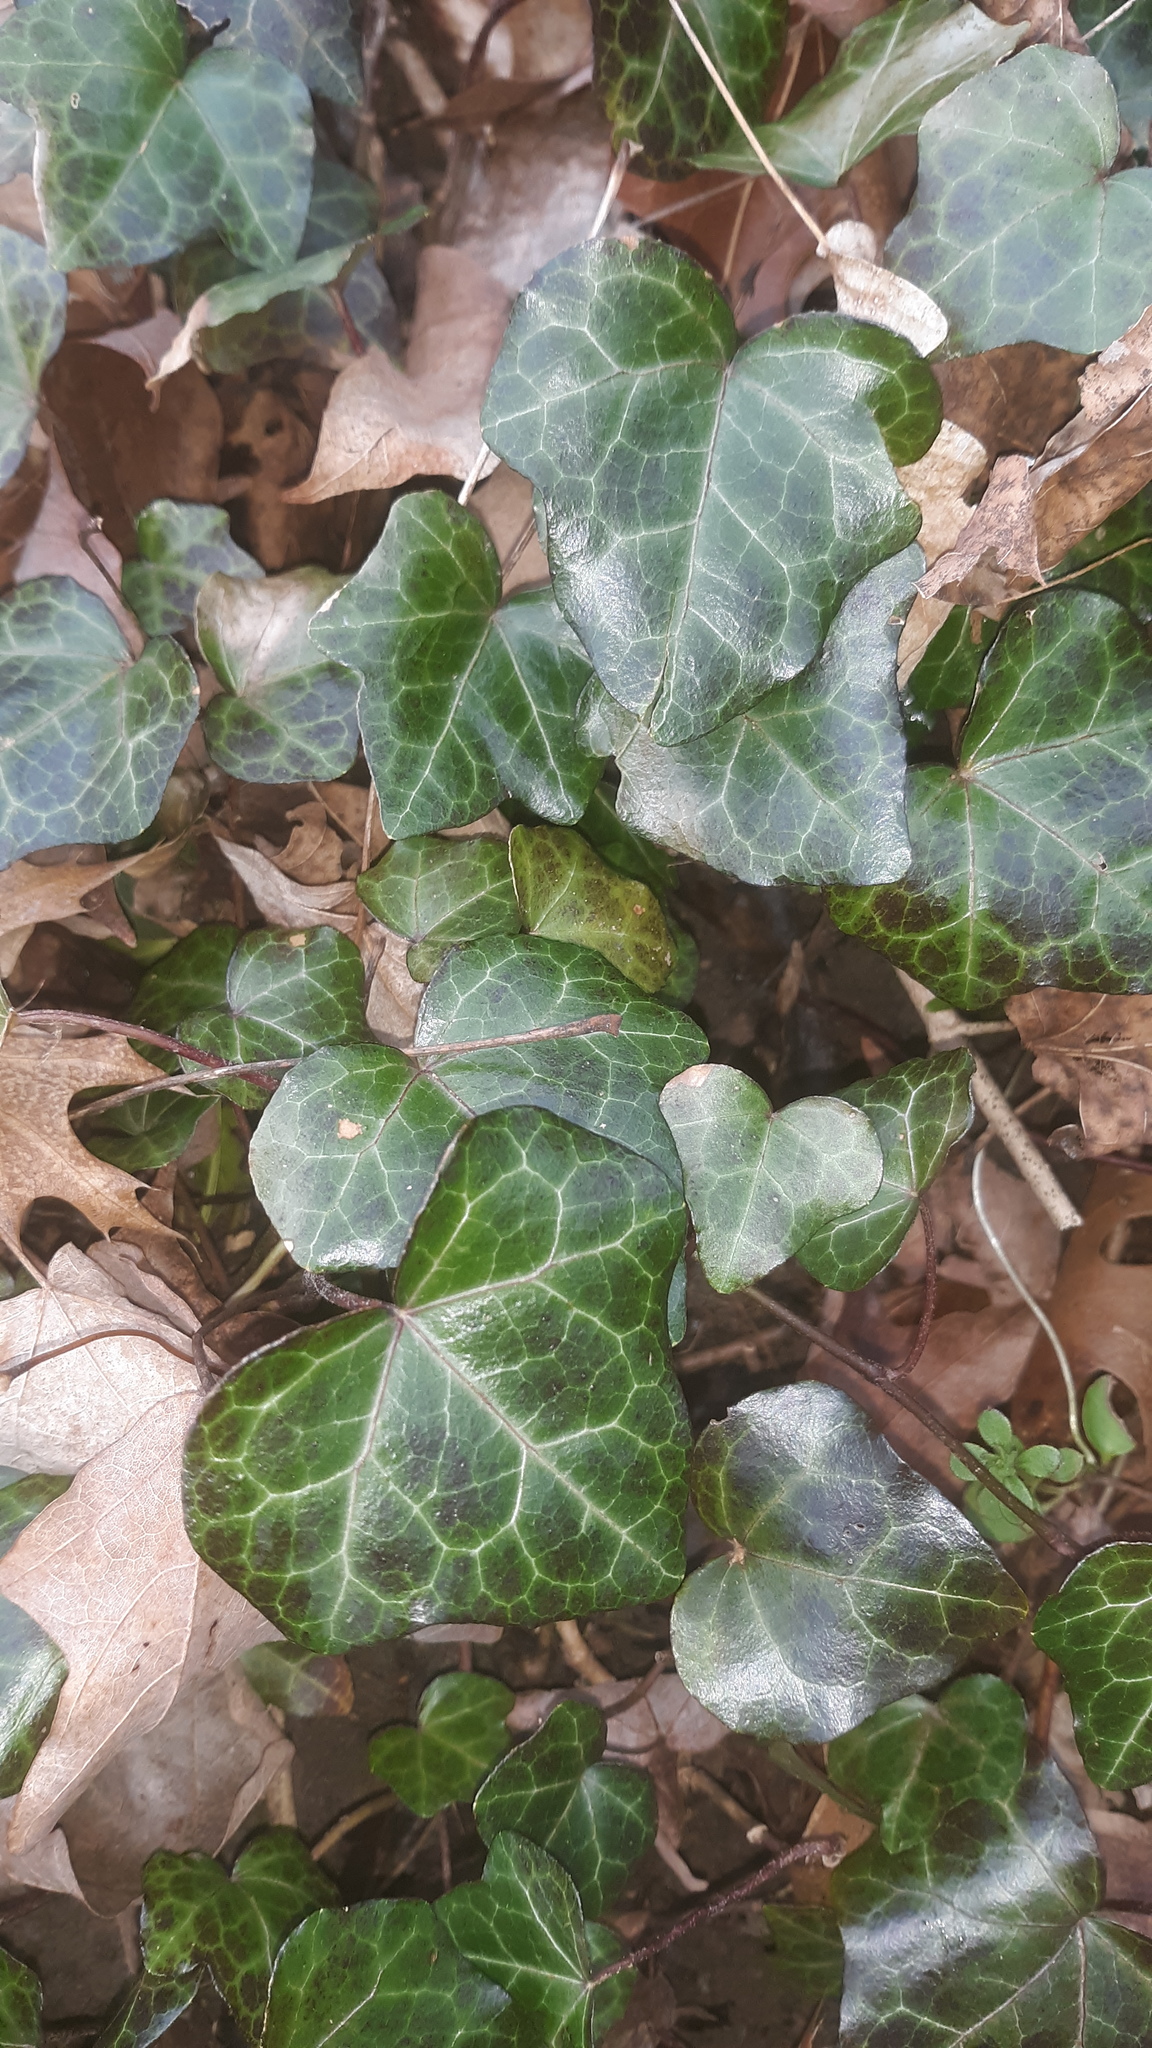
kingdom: Plantae
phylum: Tracheophyta
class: Magnoliopsida
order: Apiales
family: Araliaceae
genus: Hedera
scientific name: Hedera helix
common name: Ivy
